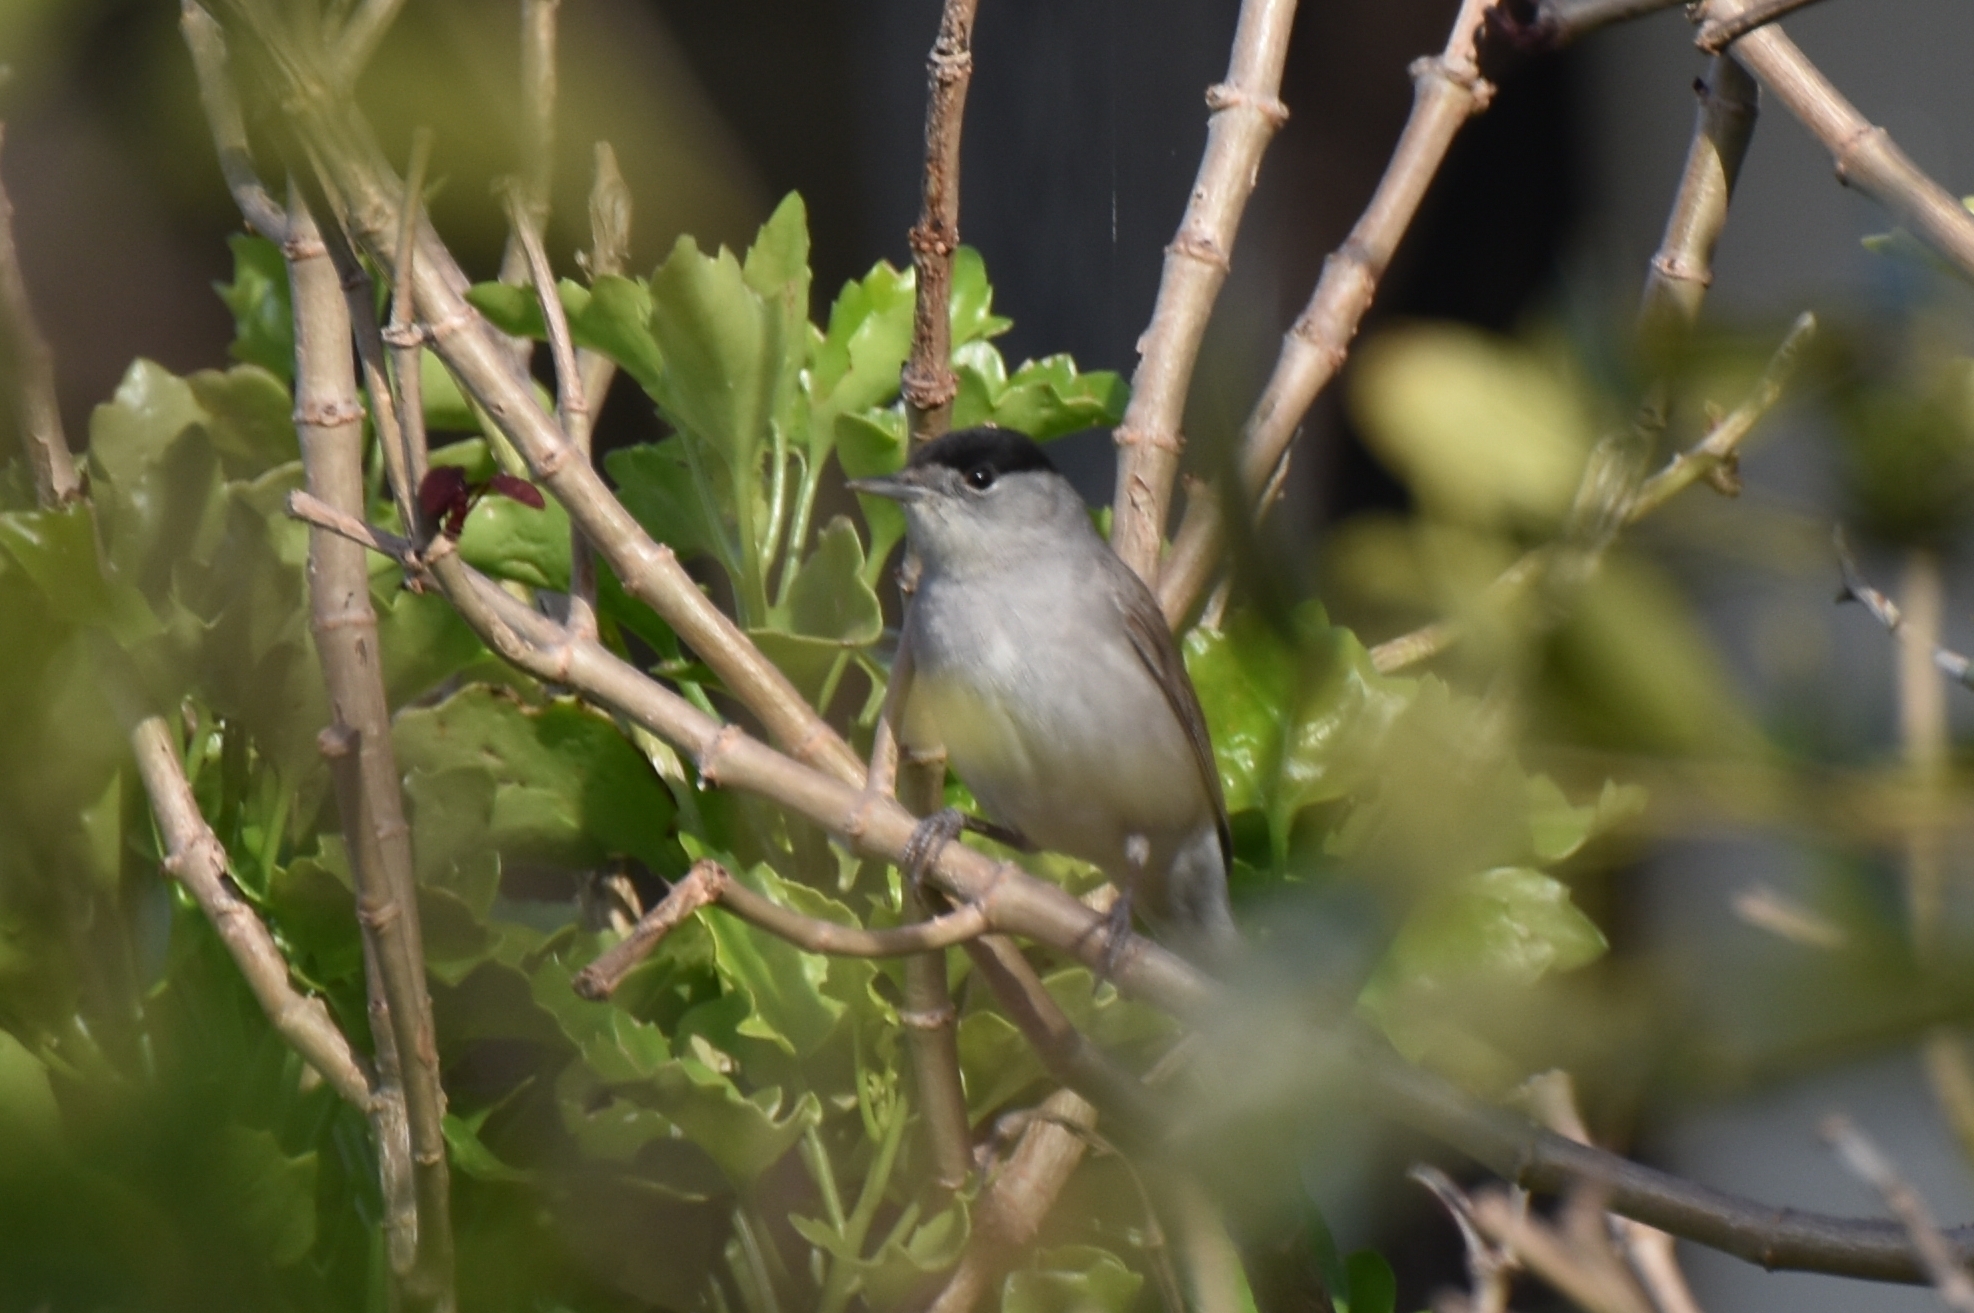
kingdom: Animalia
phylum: Chordata
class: Aves
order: Passeriformes
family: Sylviidae
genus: Sylvia
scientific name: Sylvia atricapilla
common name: Eurasian blackcap
